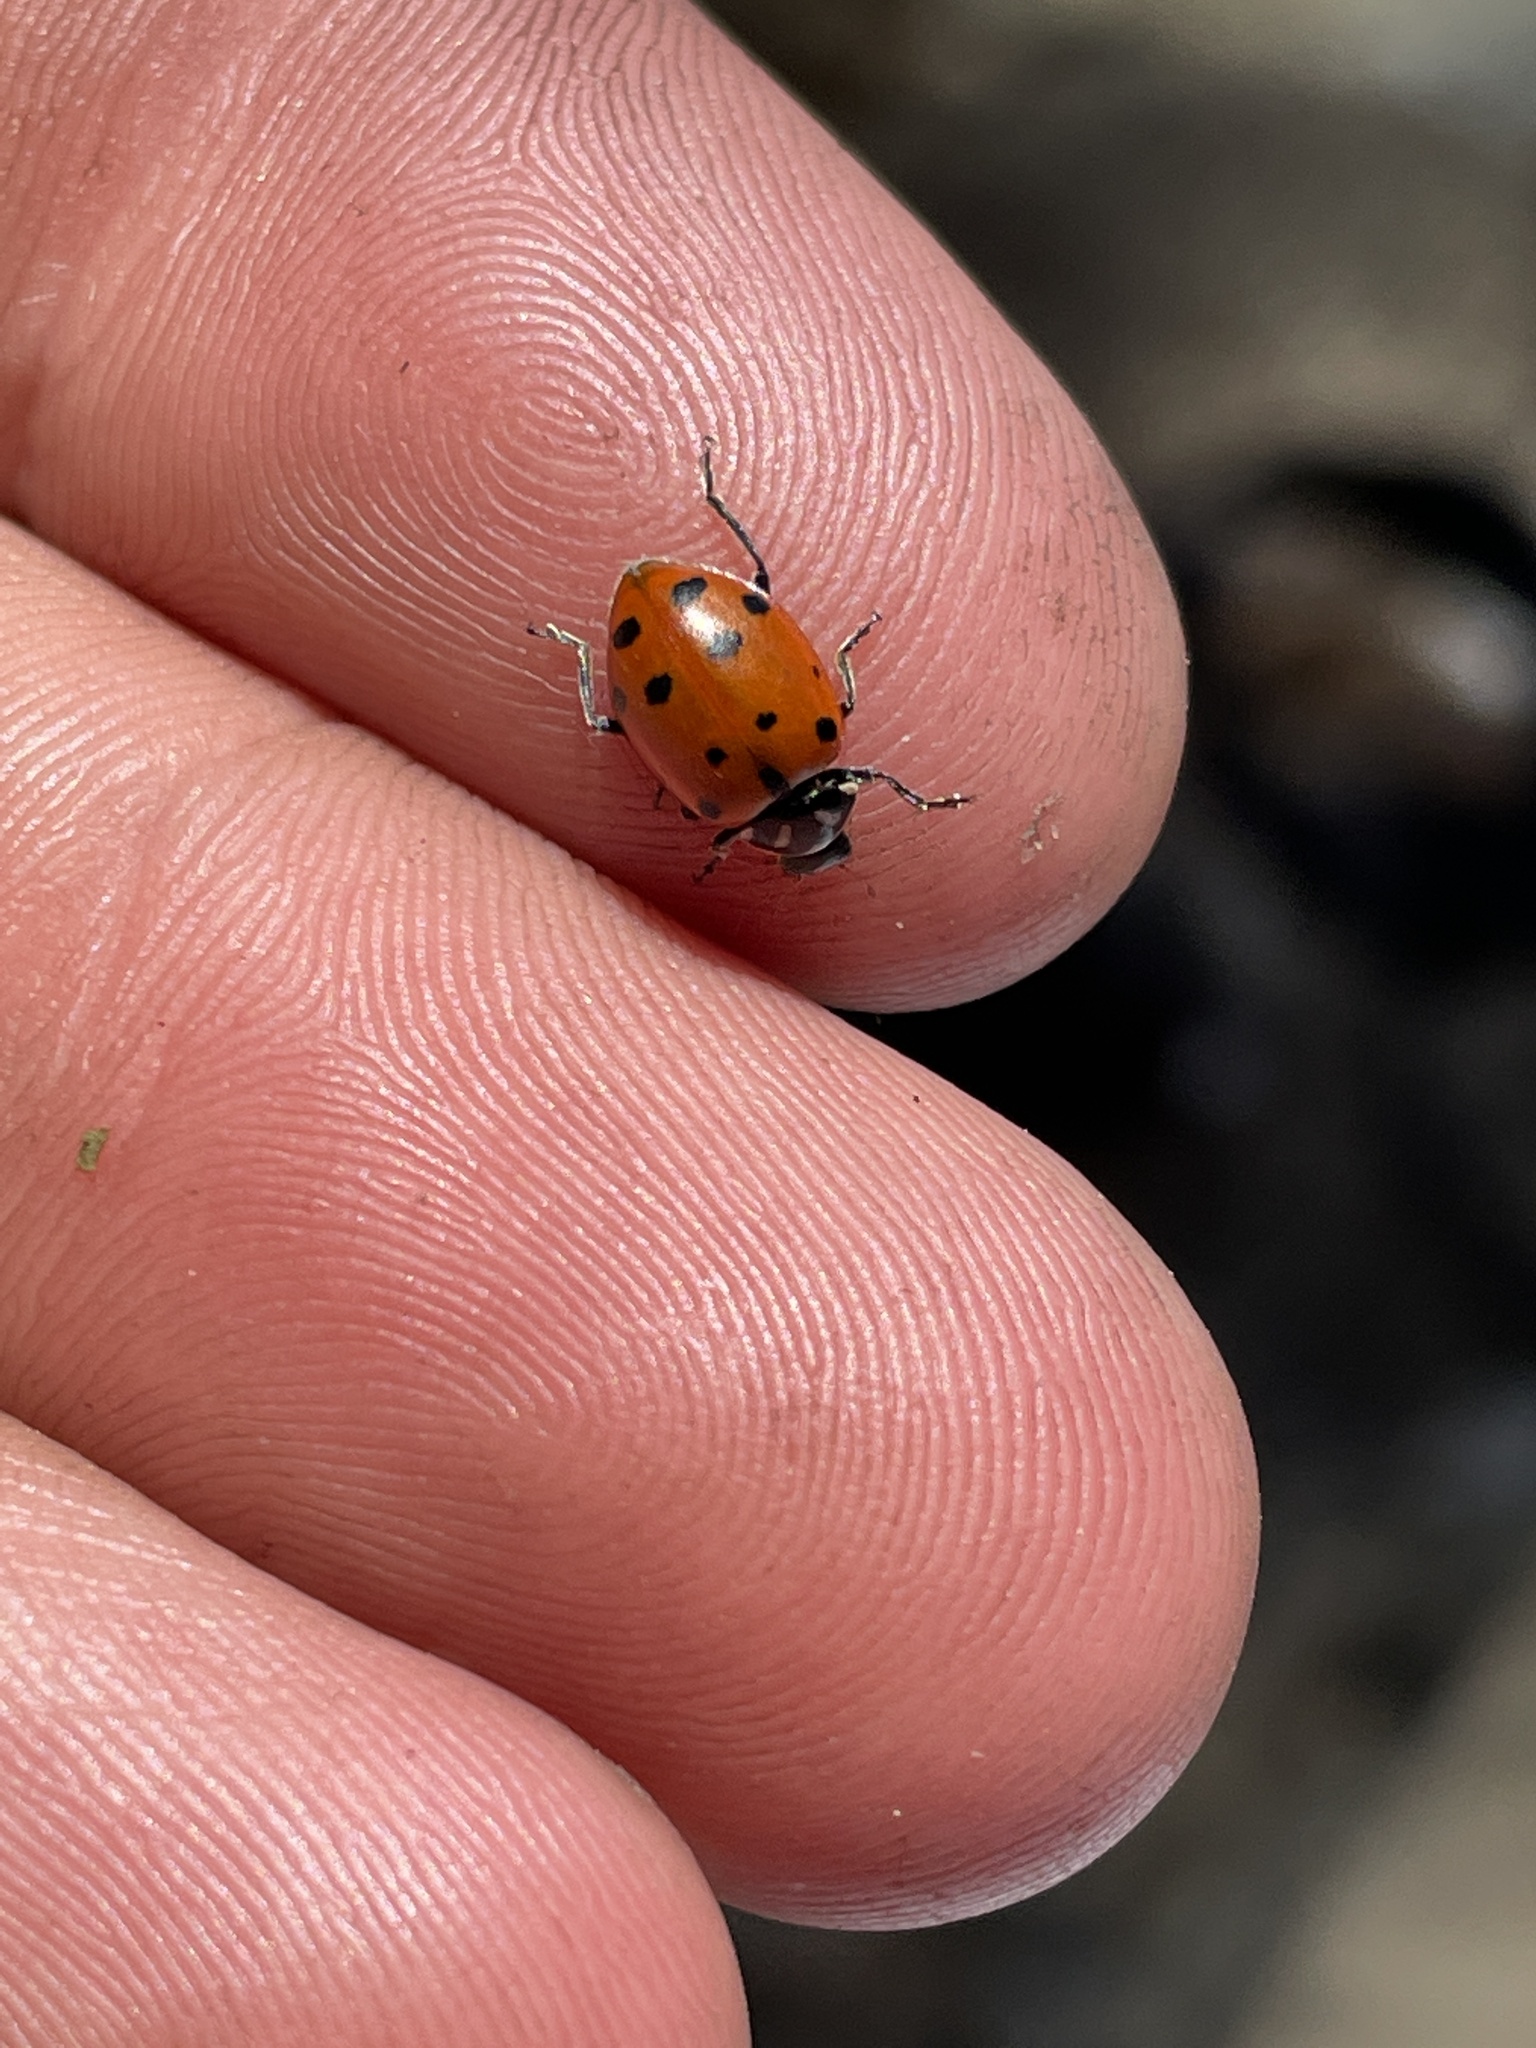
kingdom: Animalia
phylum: Arthropoda
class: Insecta
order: Coleoptera
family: Coccinellidae
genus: Hippodamia
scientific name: Hippodamia convergens
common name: Convergent lady beetle
